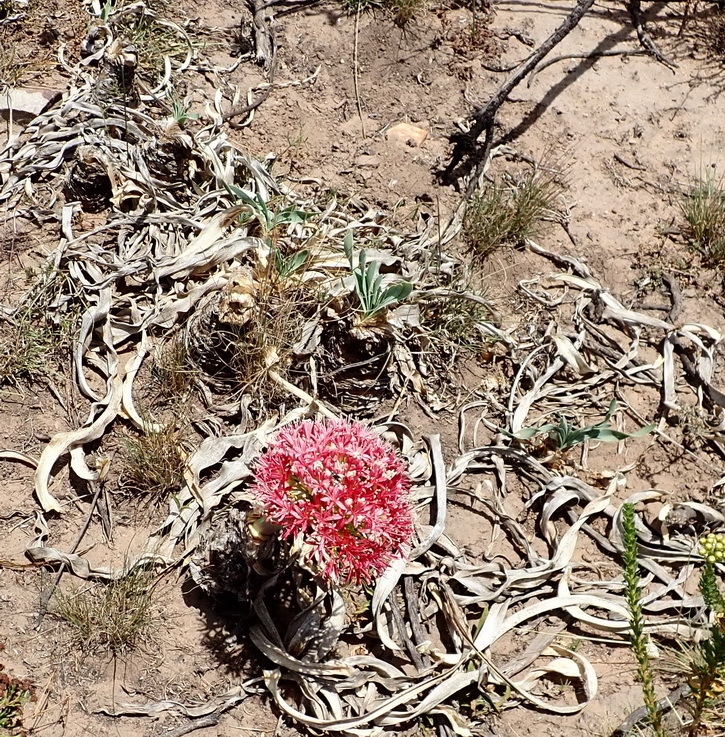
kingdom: Plantae
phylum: Tracheophyta
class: Liliopsida
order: Asparagales
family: Amaryllidaceae
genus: Boophone
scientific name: Boophone disticha
